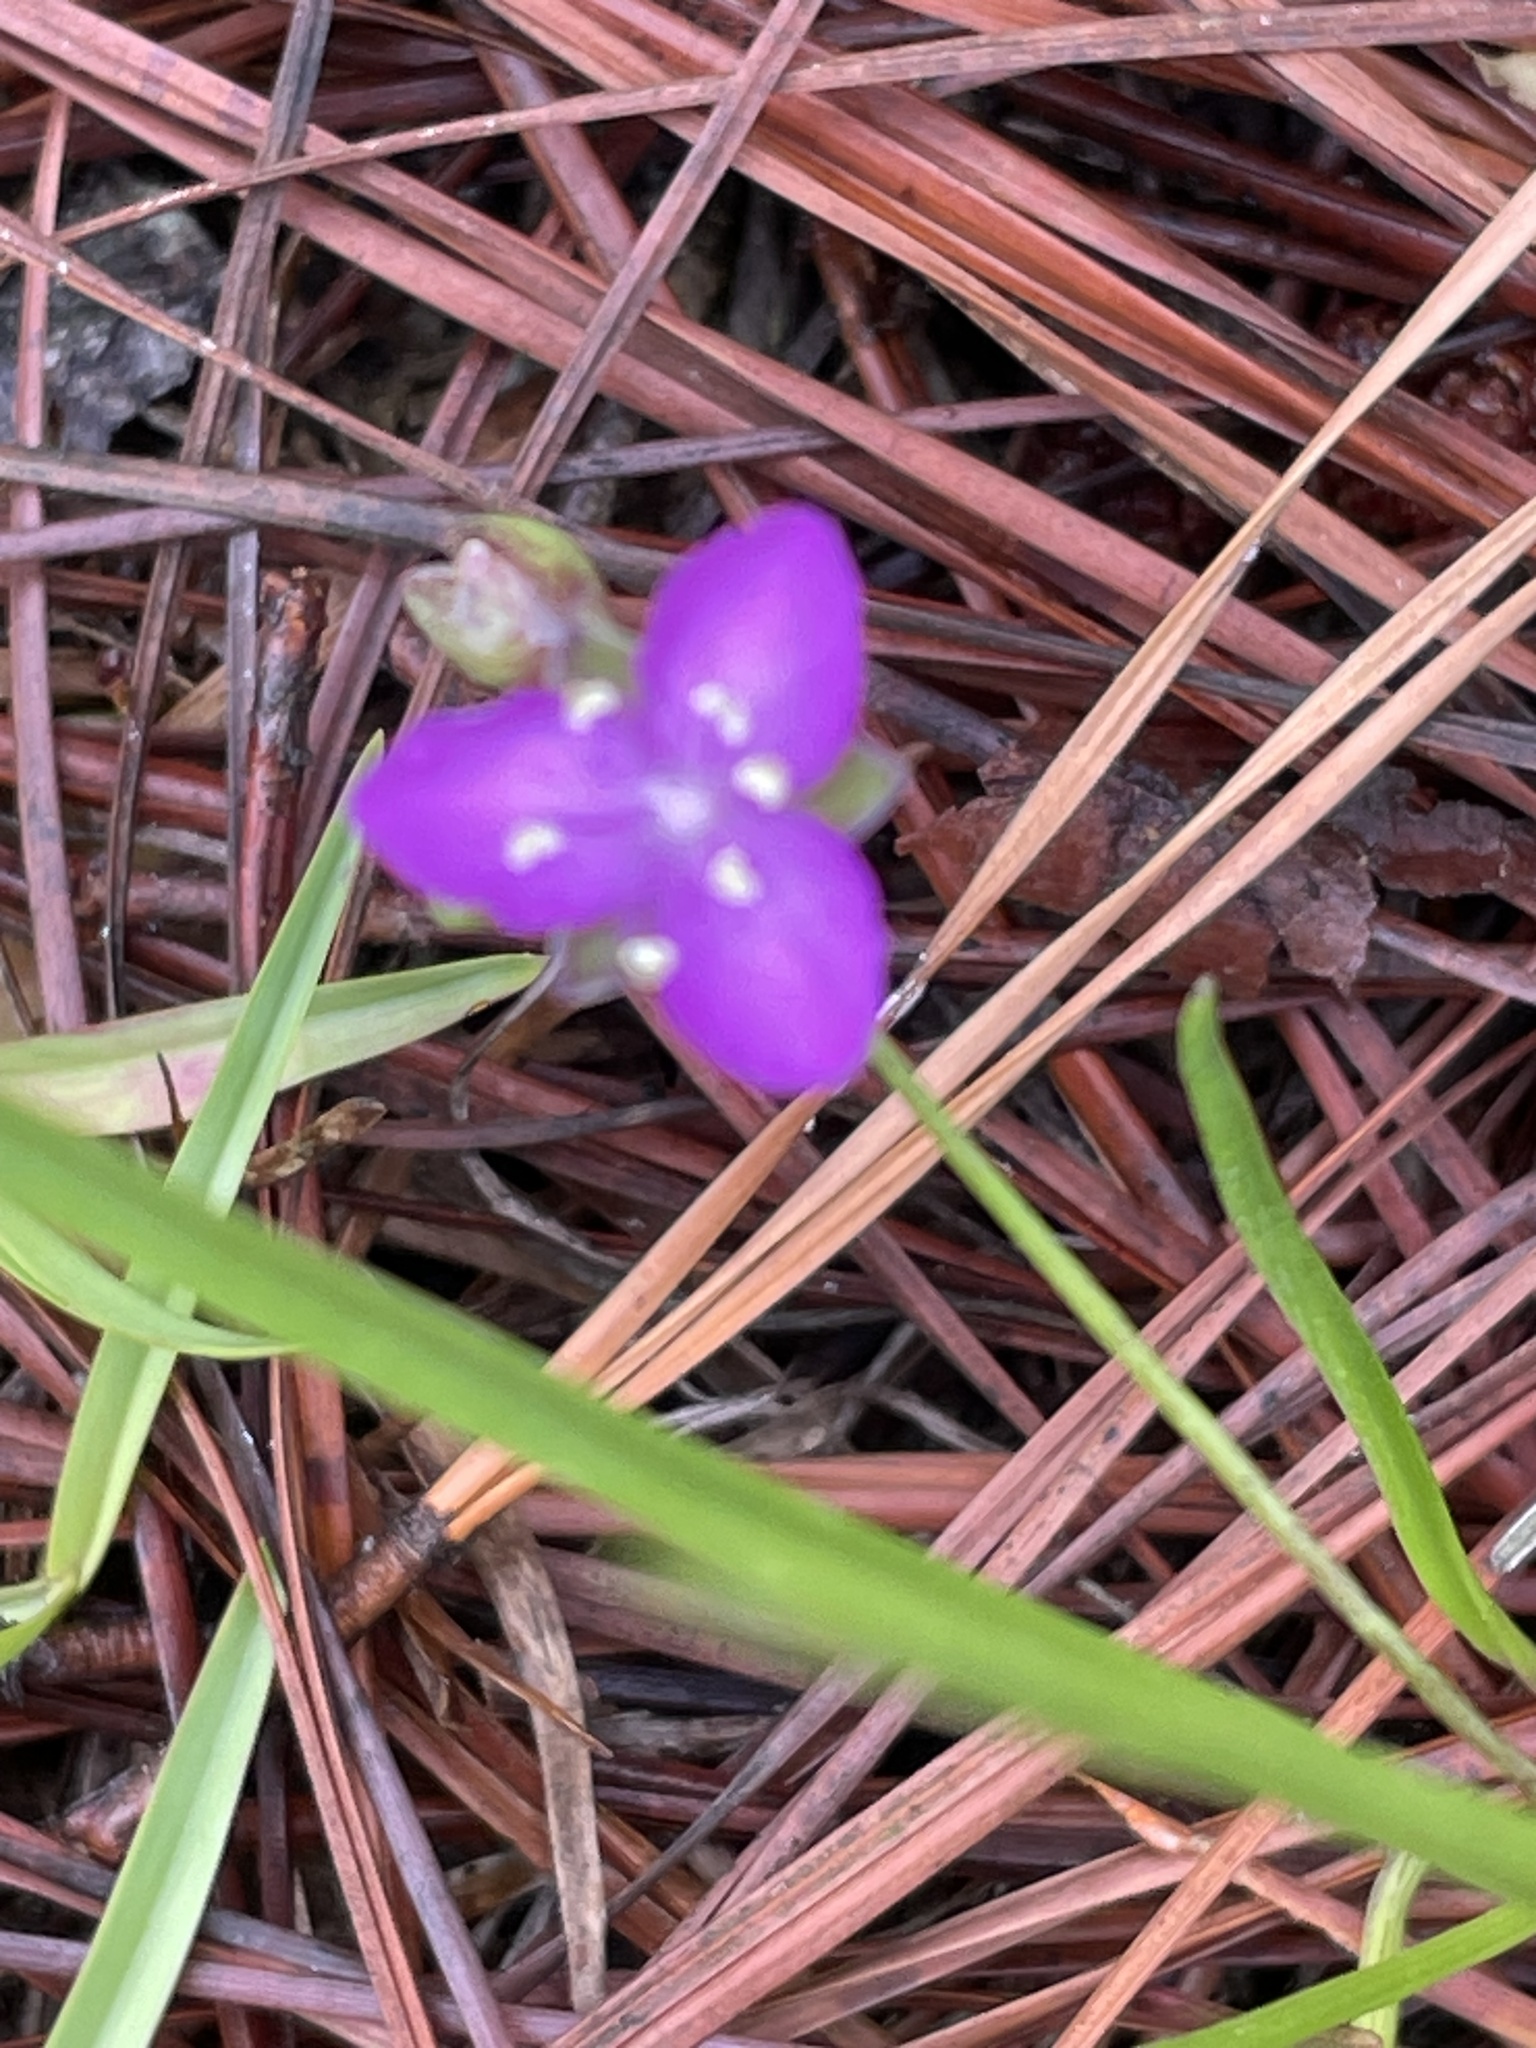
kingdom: Plantae
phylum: Tracheophyta
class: Liliopsida
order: Commelinales
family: Commelinaceae
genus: Callisia
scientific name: Callisia graminea
